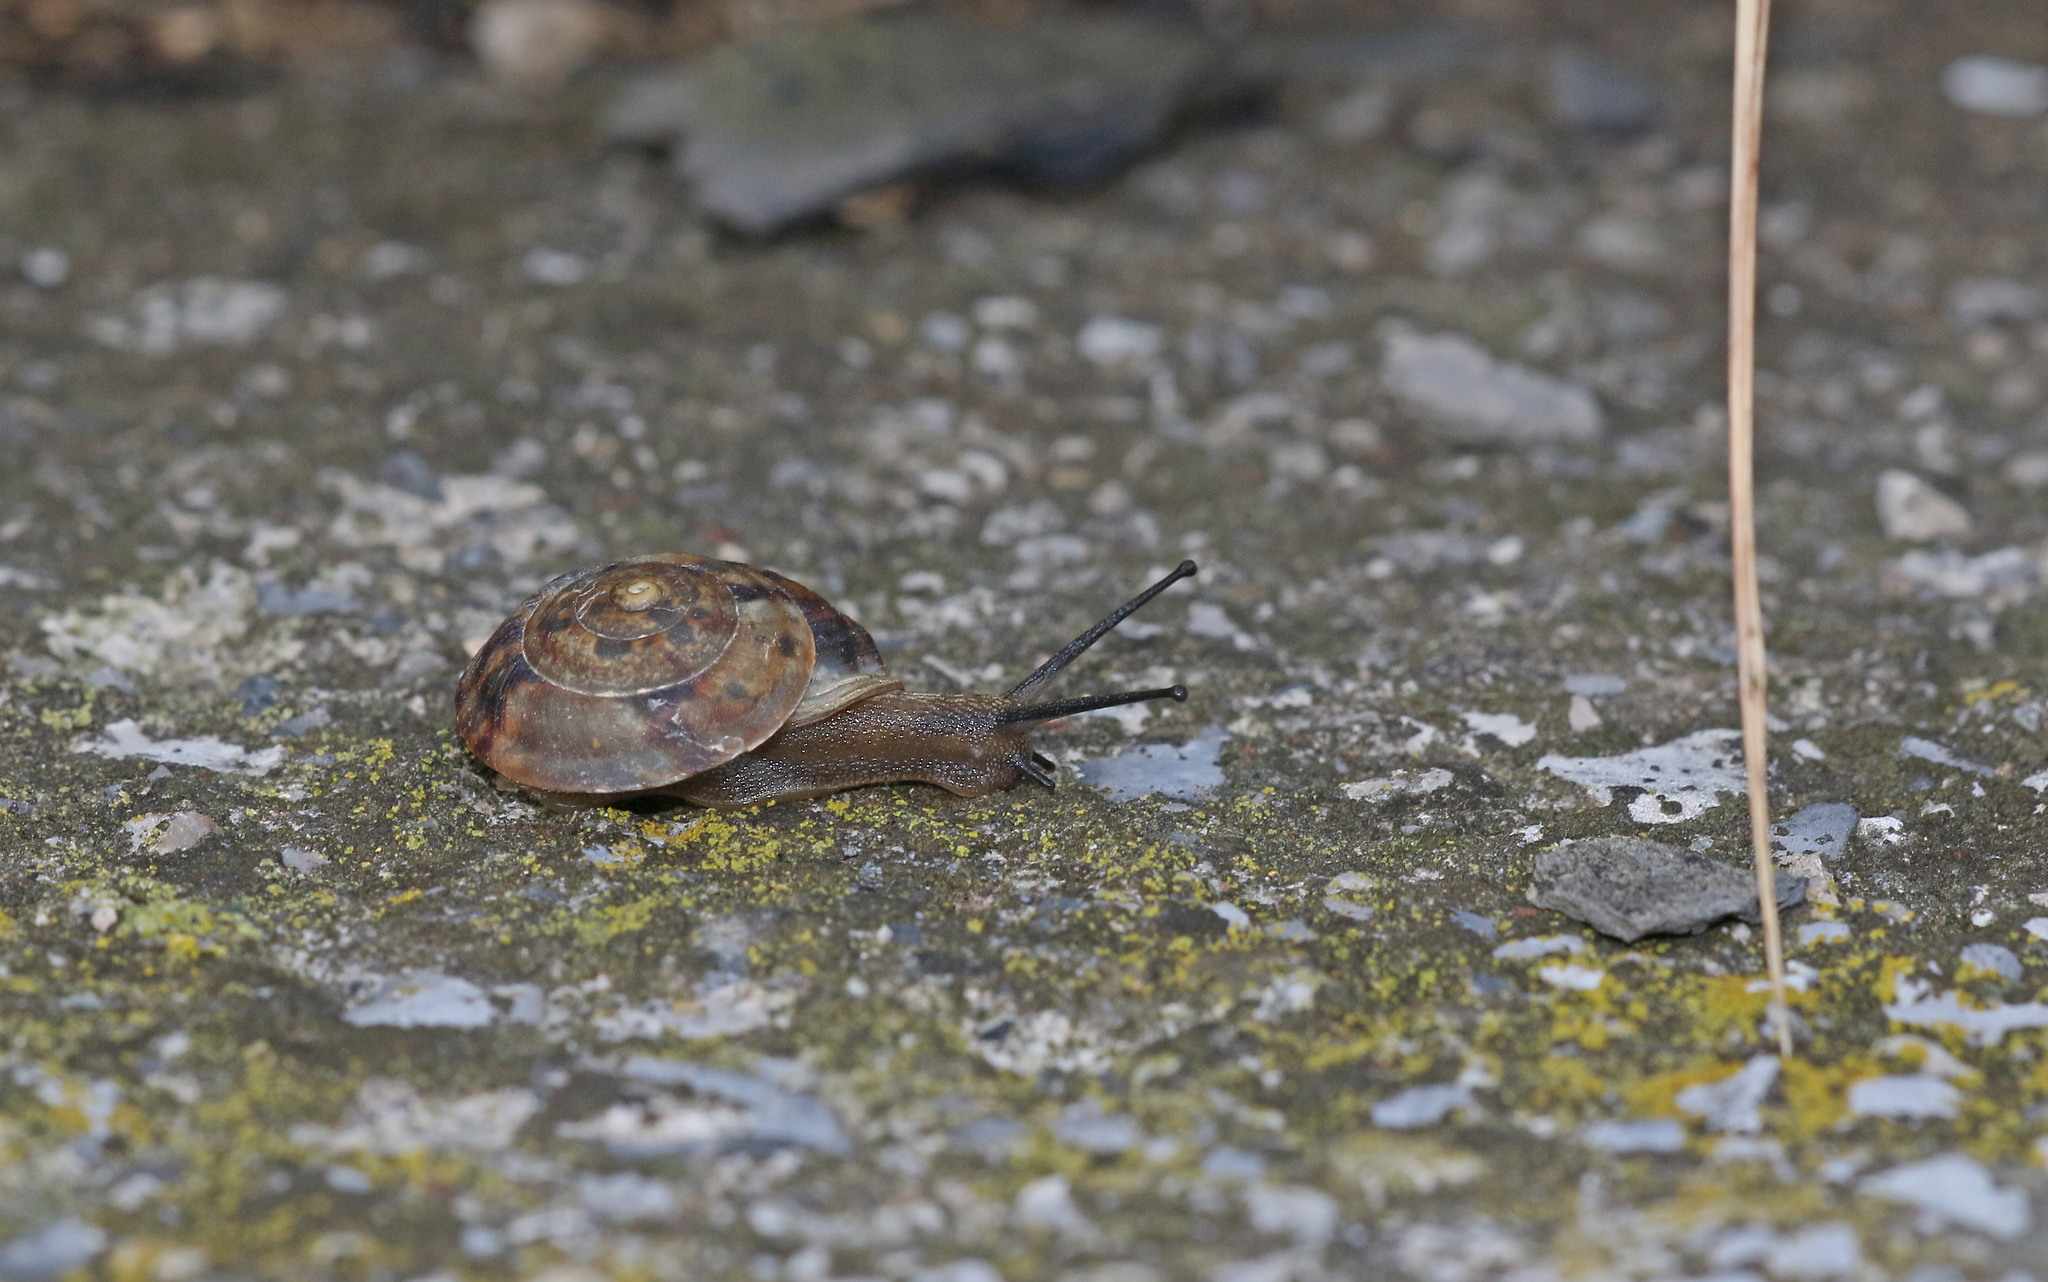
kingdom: Animalia
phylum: Mollusca
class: Gastropoda
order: Stylommatophora
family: Helicidae
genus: Helicigona
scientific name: Helicigona lapicida
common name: Lapidary snail
